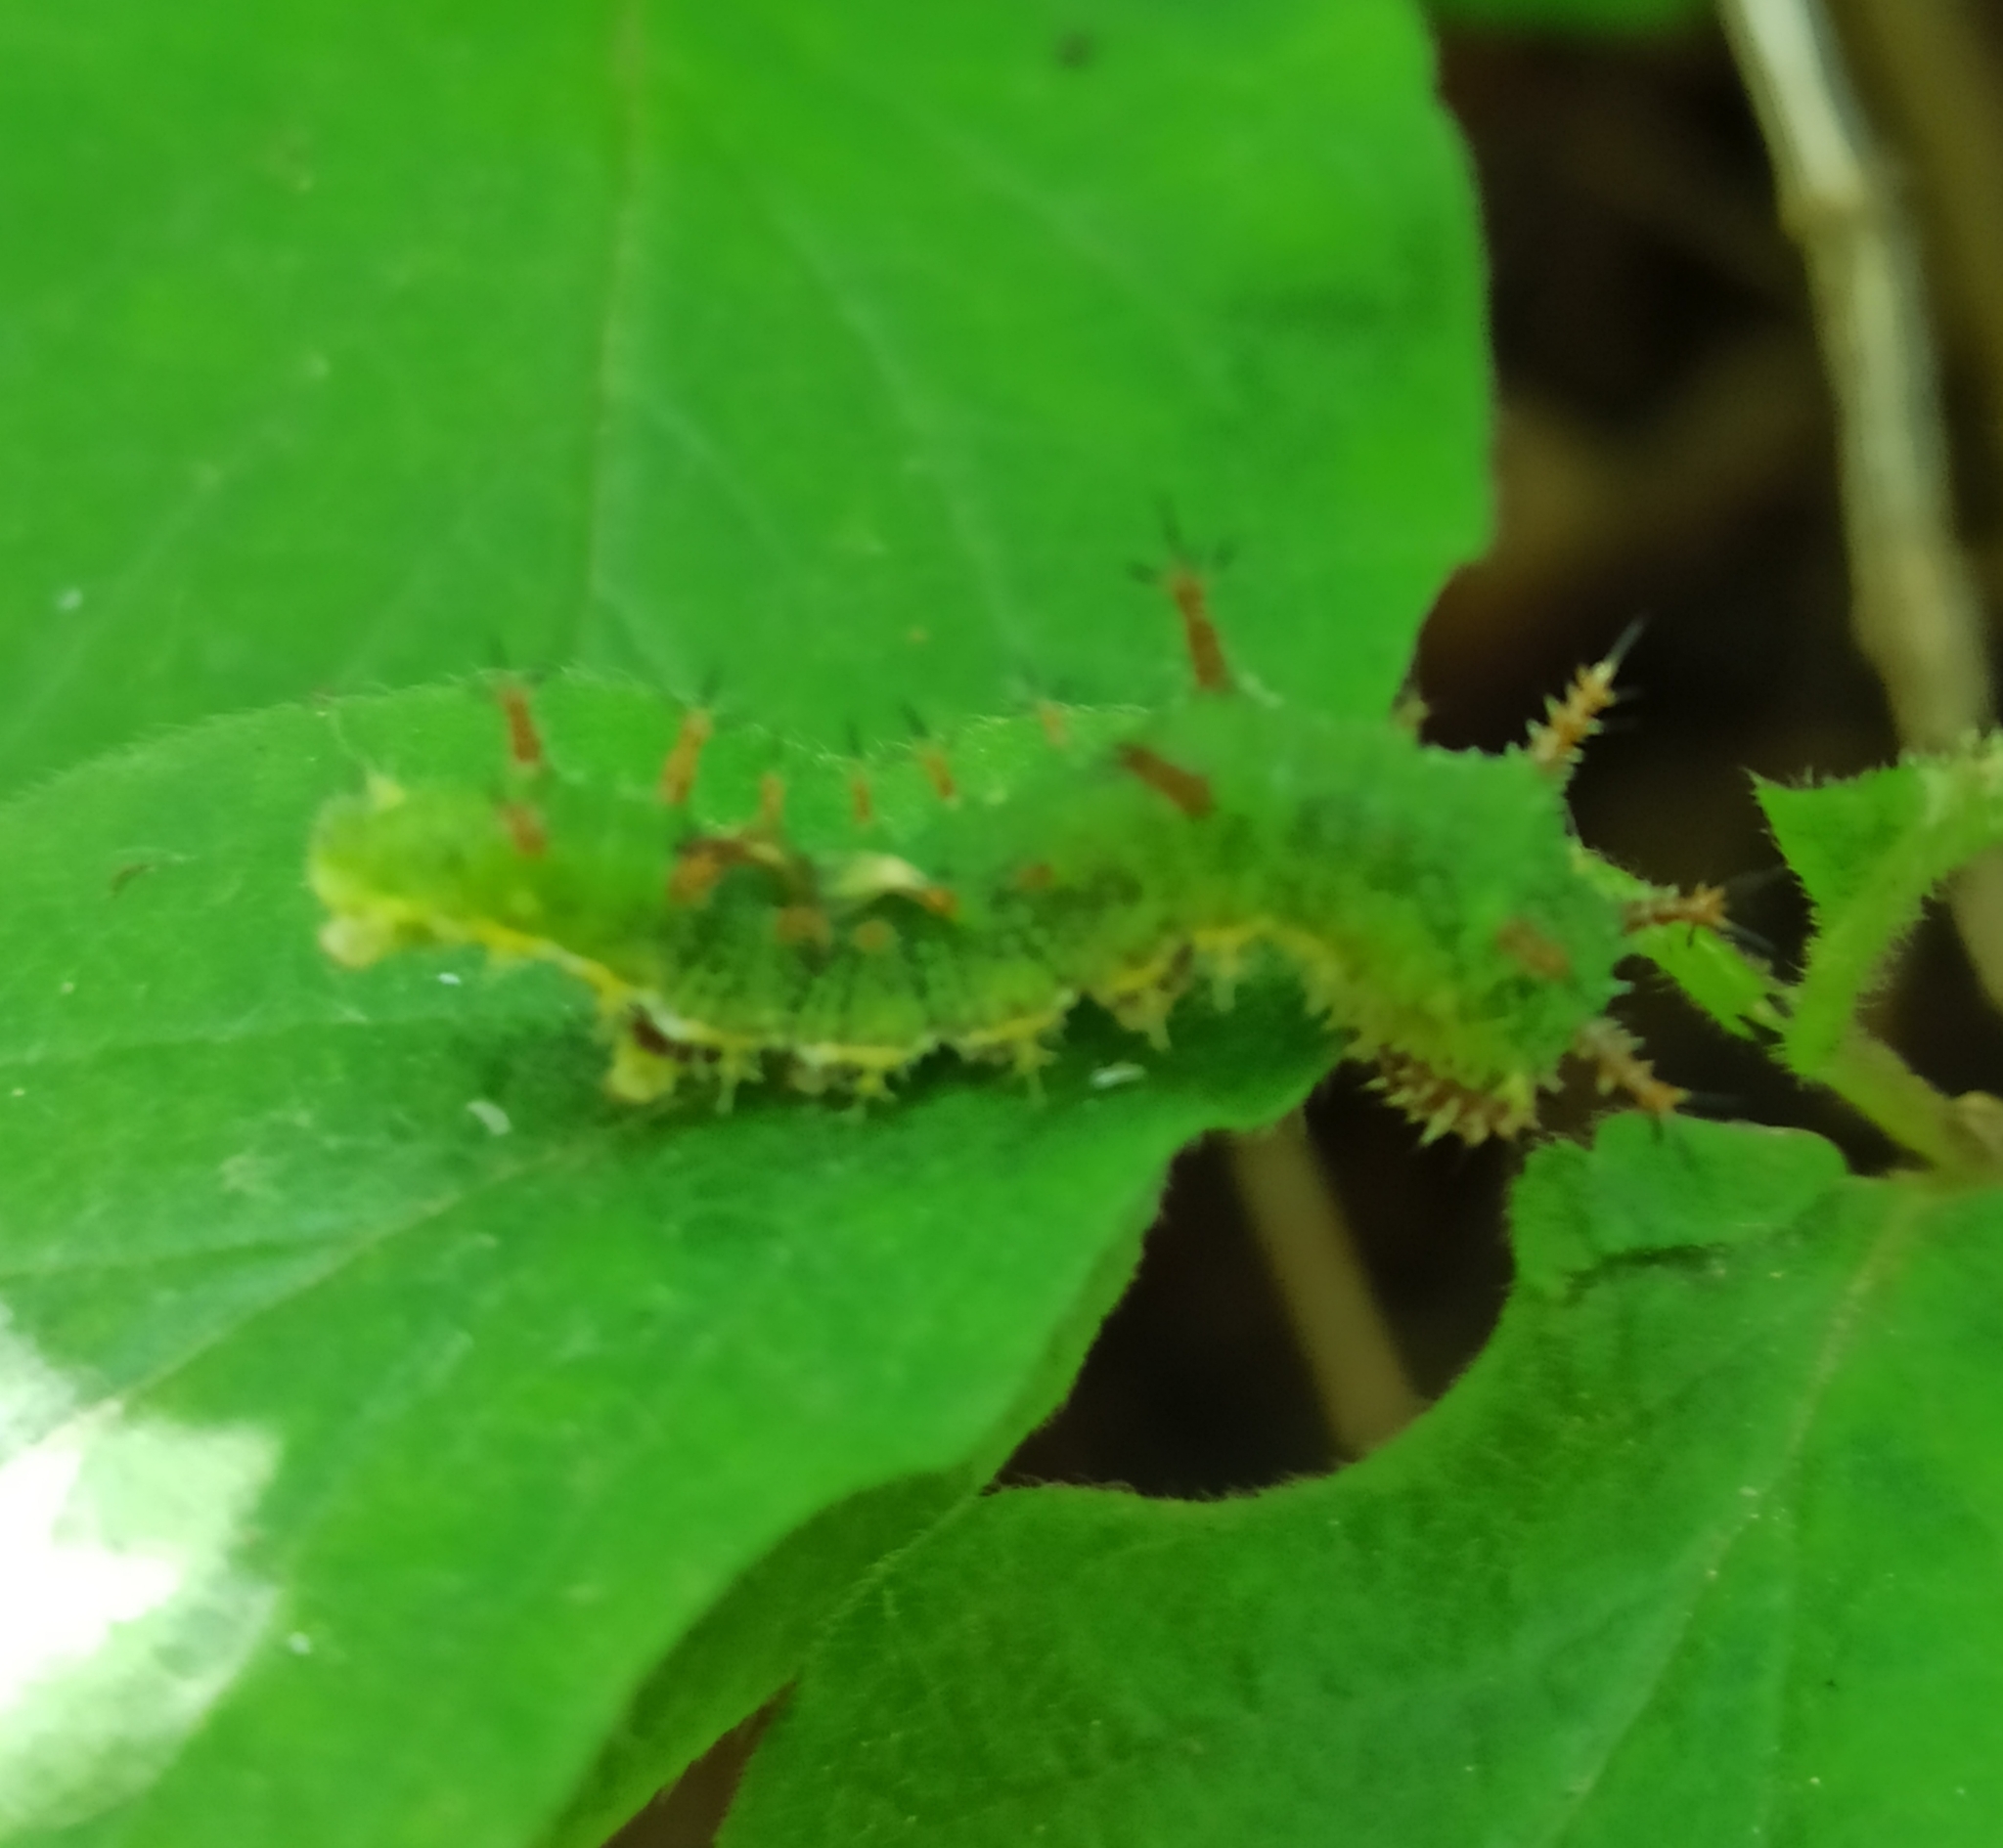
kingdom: Animalia
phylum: Arthropoda
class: Insecta
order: Lepidoptera
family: Nymphalidae
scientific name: Nymphalidae
